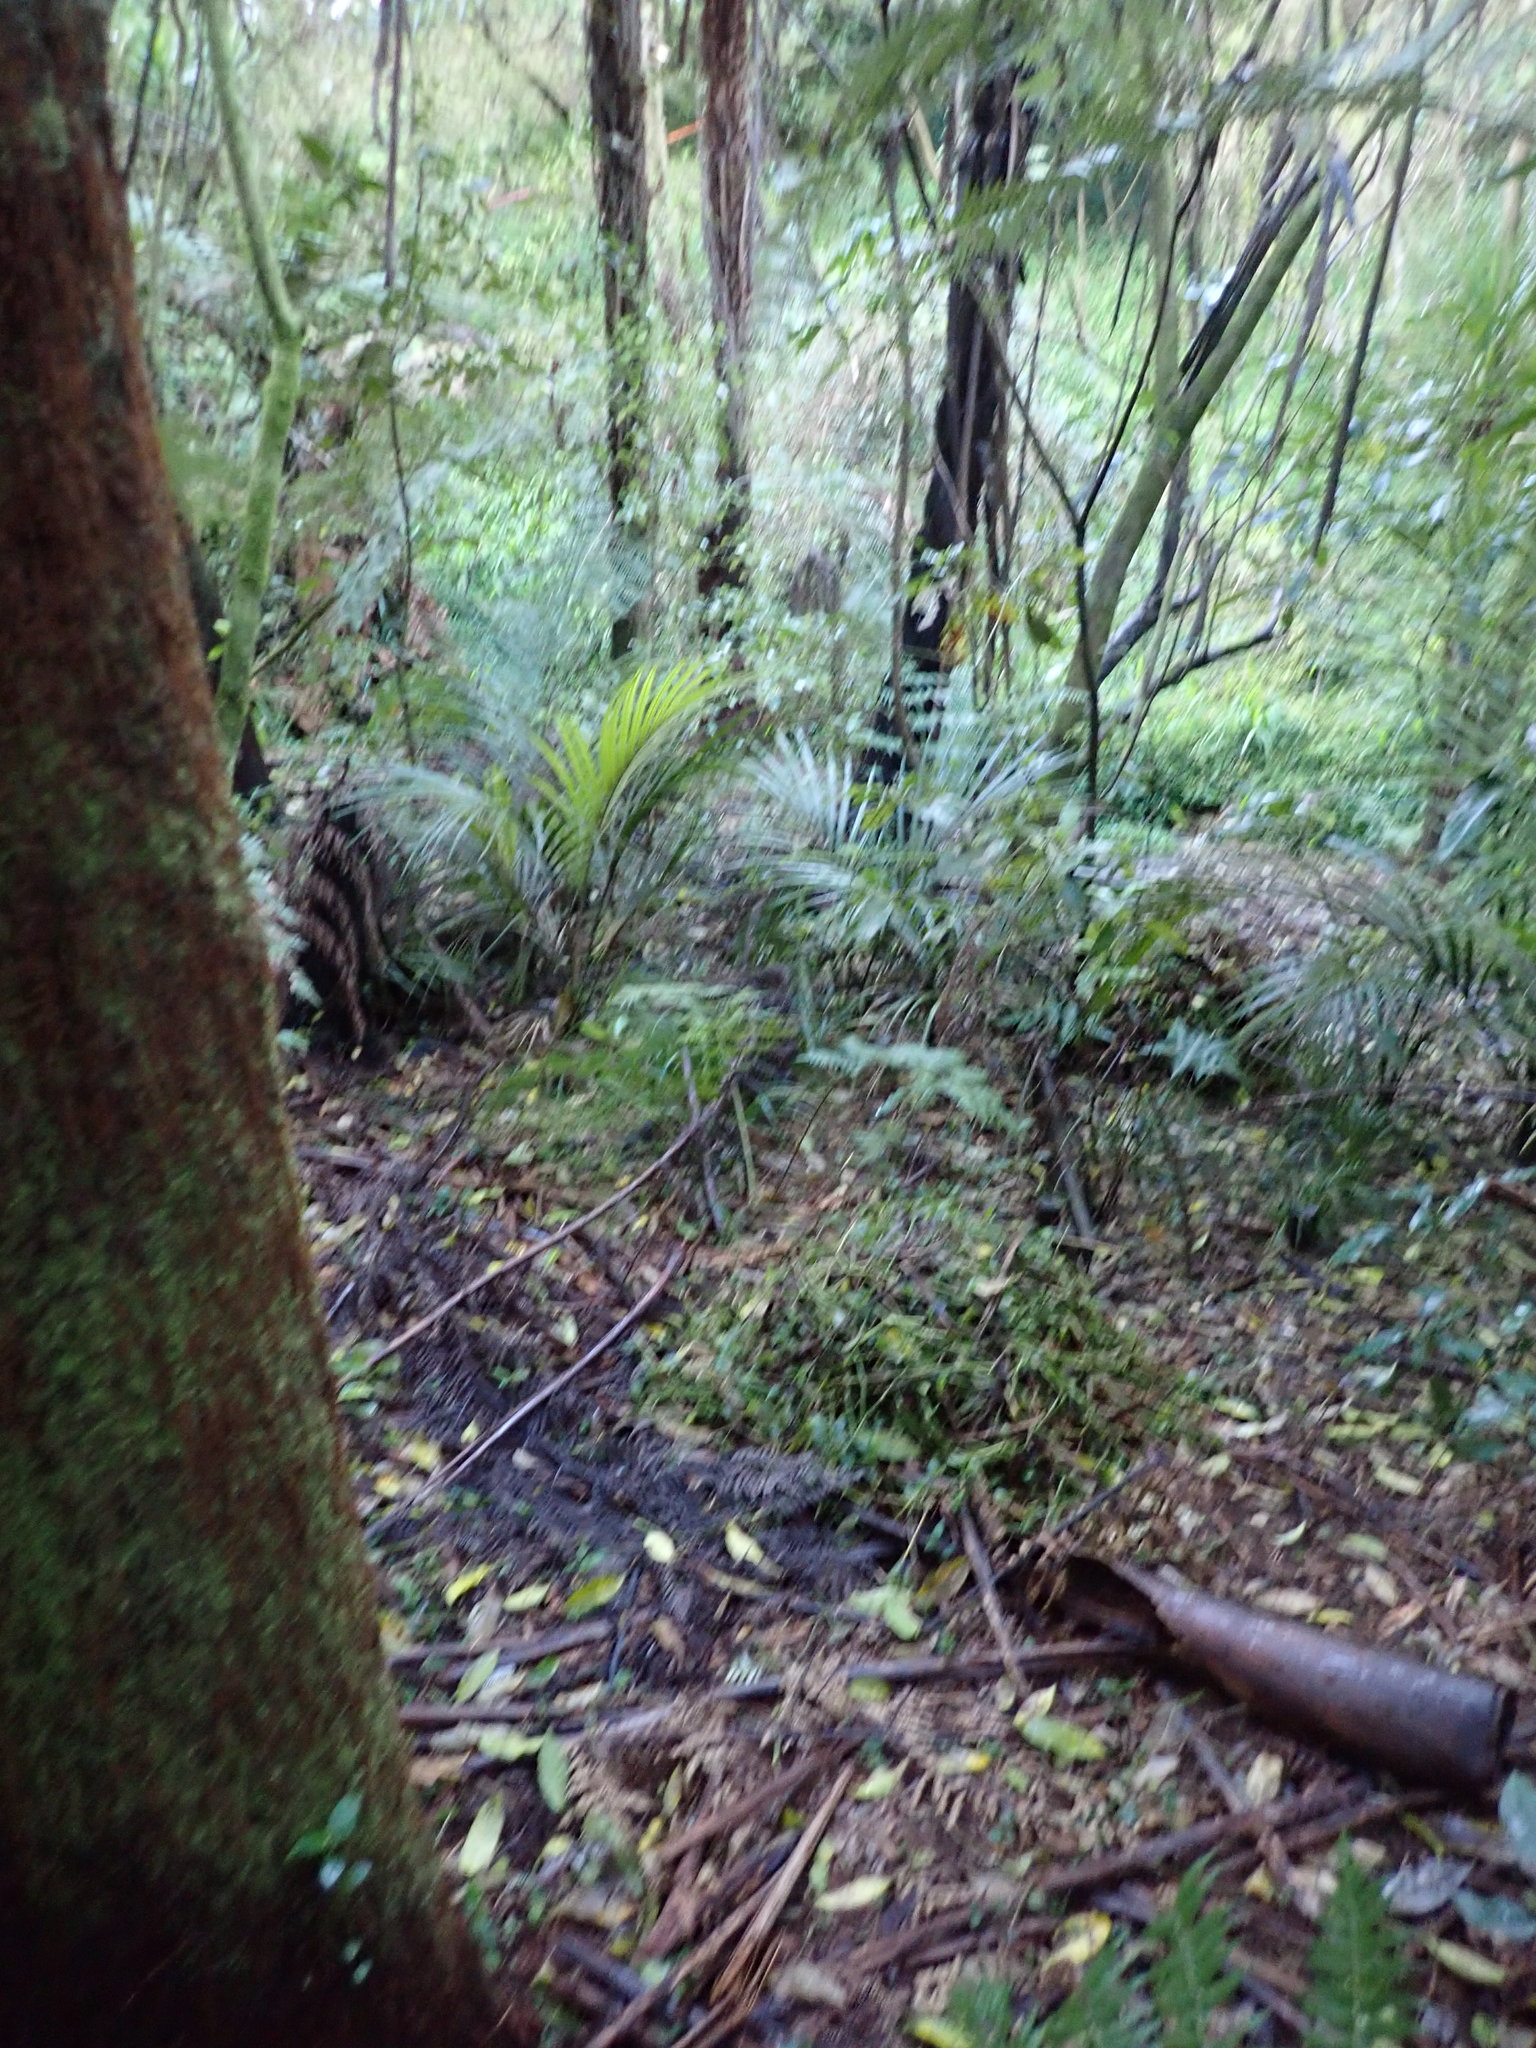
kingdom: Plantae
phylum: Tracheophyta
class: Liliopsida
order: Commelinales
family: Commelinaceae
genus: Tradescantia
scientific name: Tradescantia fluminensis
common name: Wandering-jew
